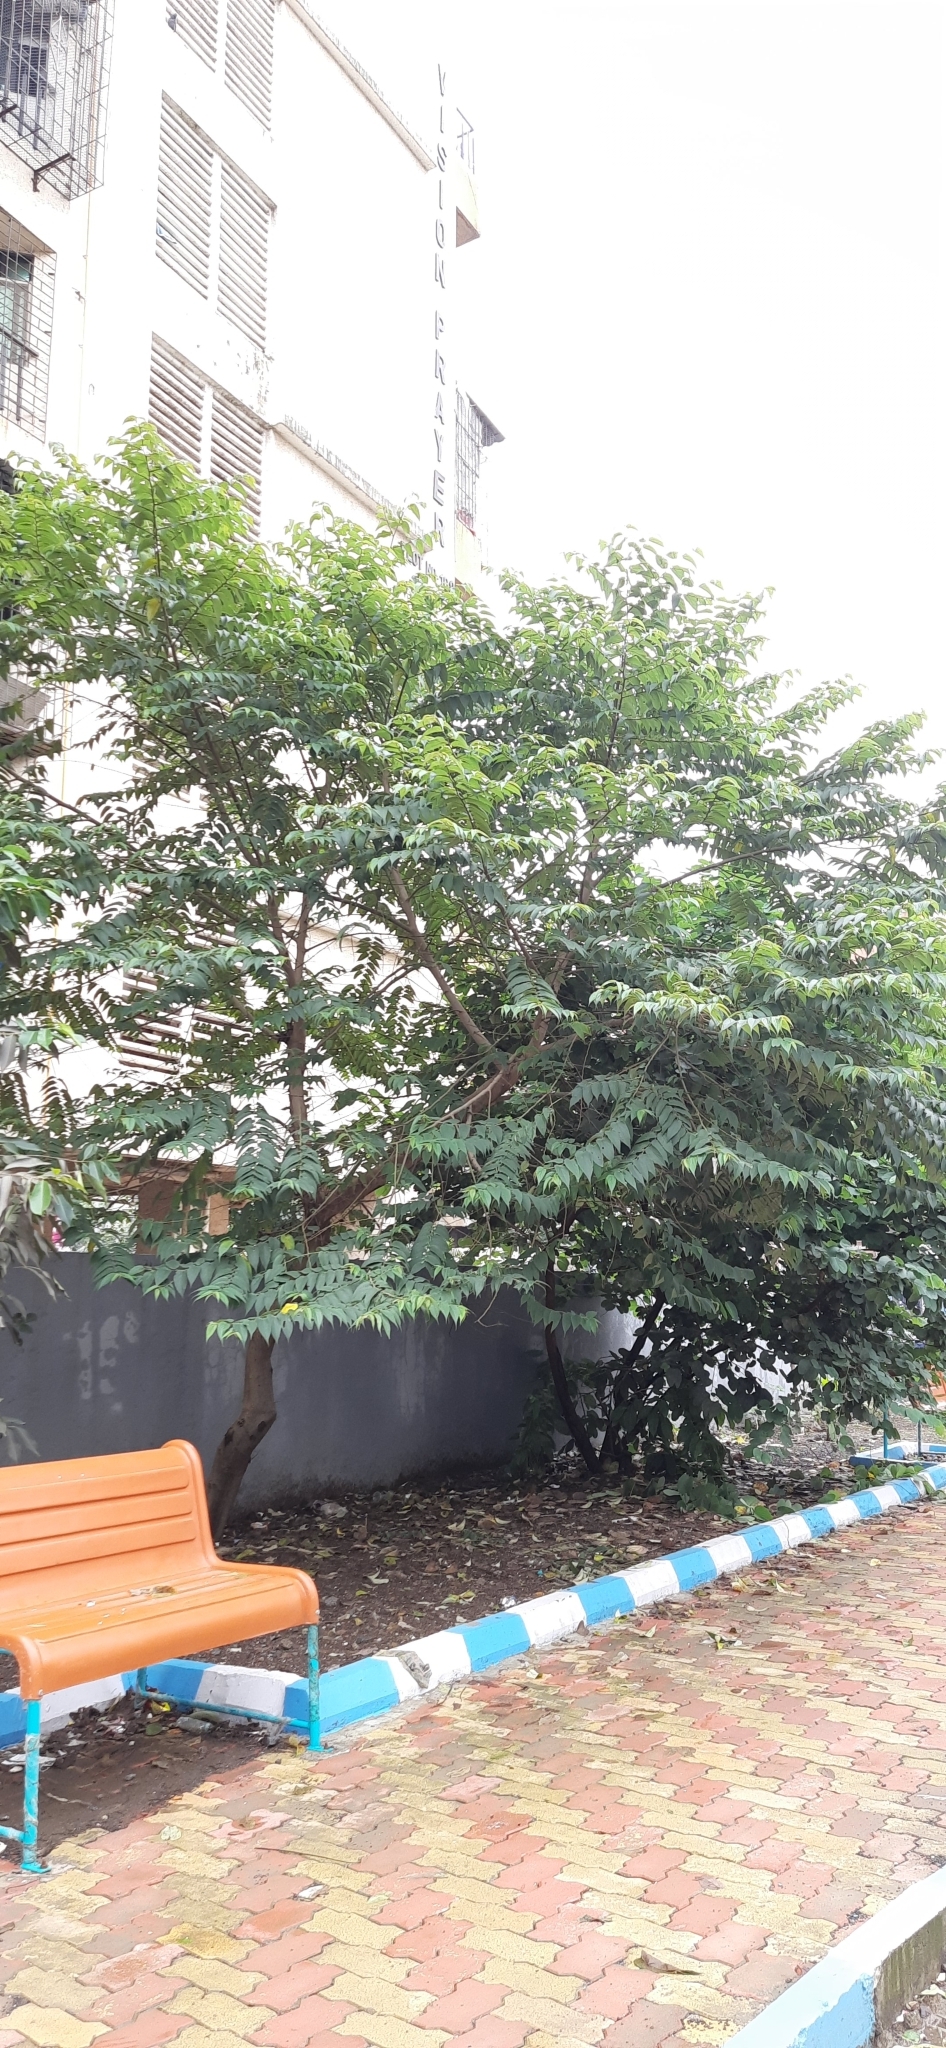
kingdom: Plantae
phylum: Tracheophyta
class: Magnoliopsida
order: Rosales
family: Cannabaceae
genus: Trema
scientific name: Trema orientale
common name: Indian charcoal tree
